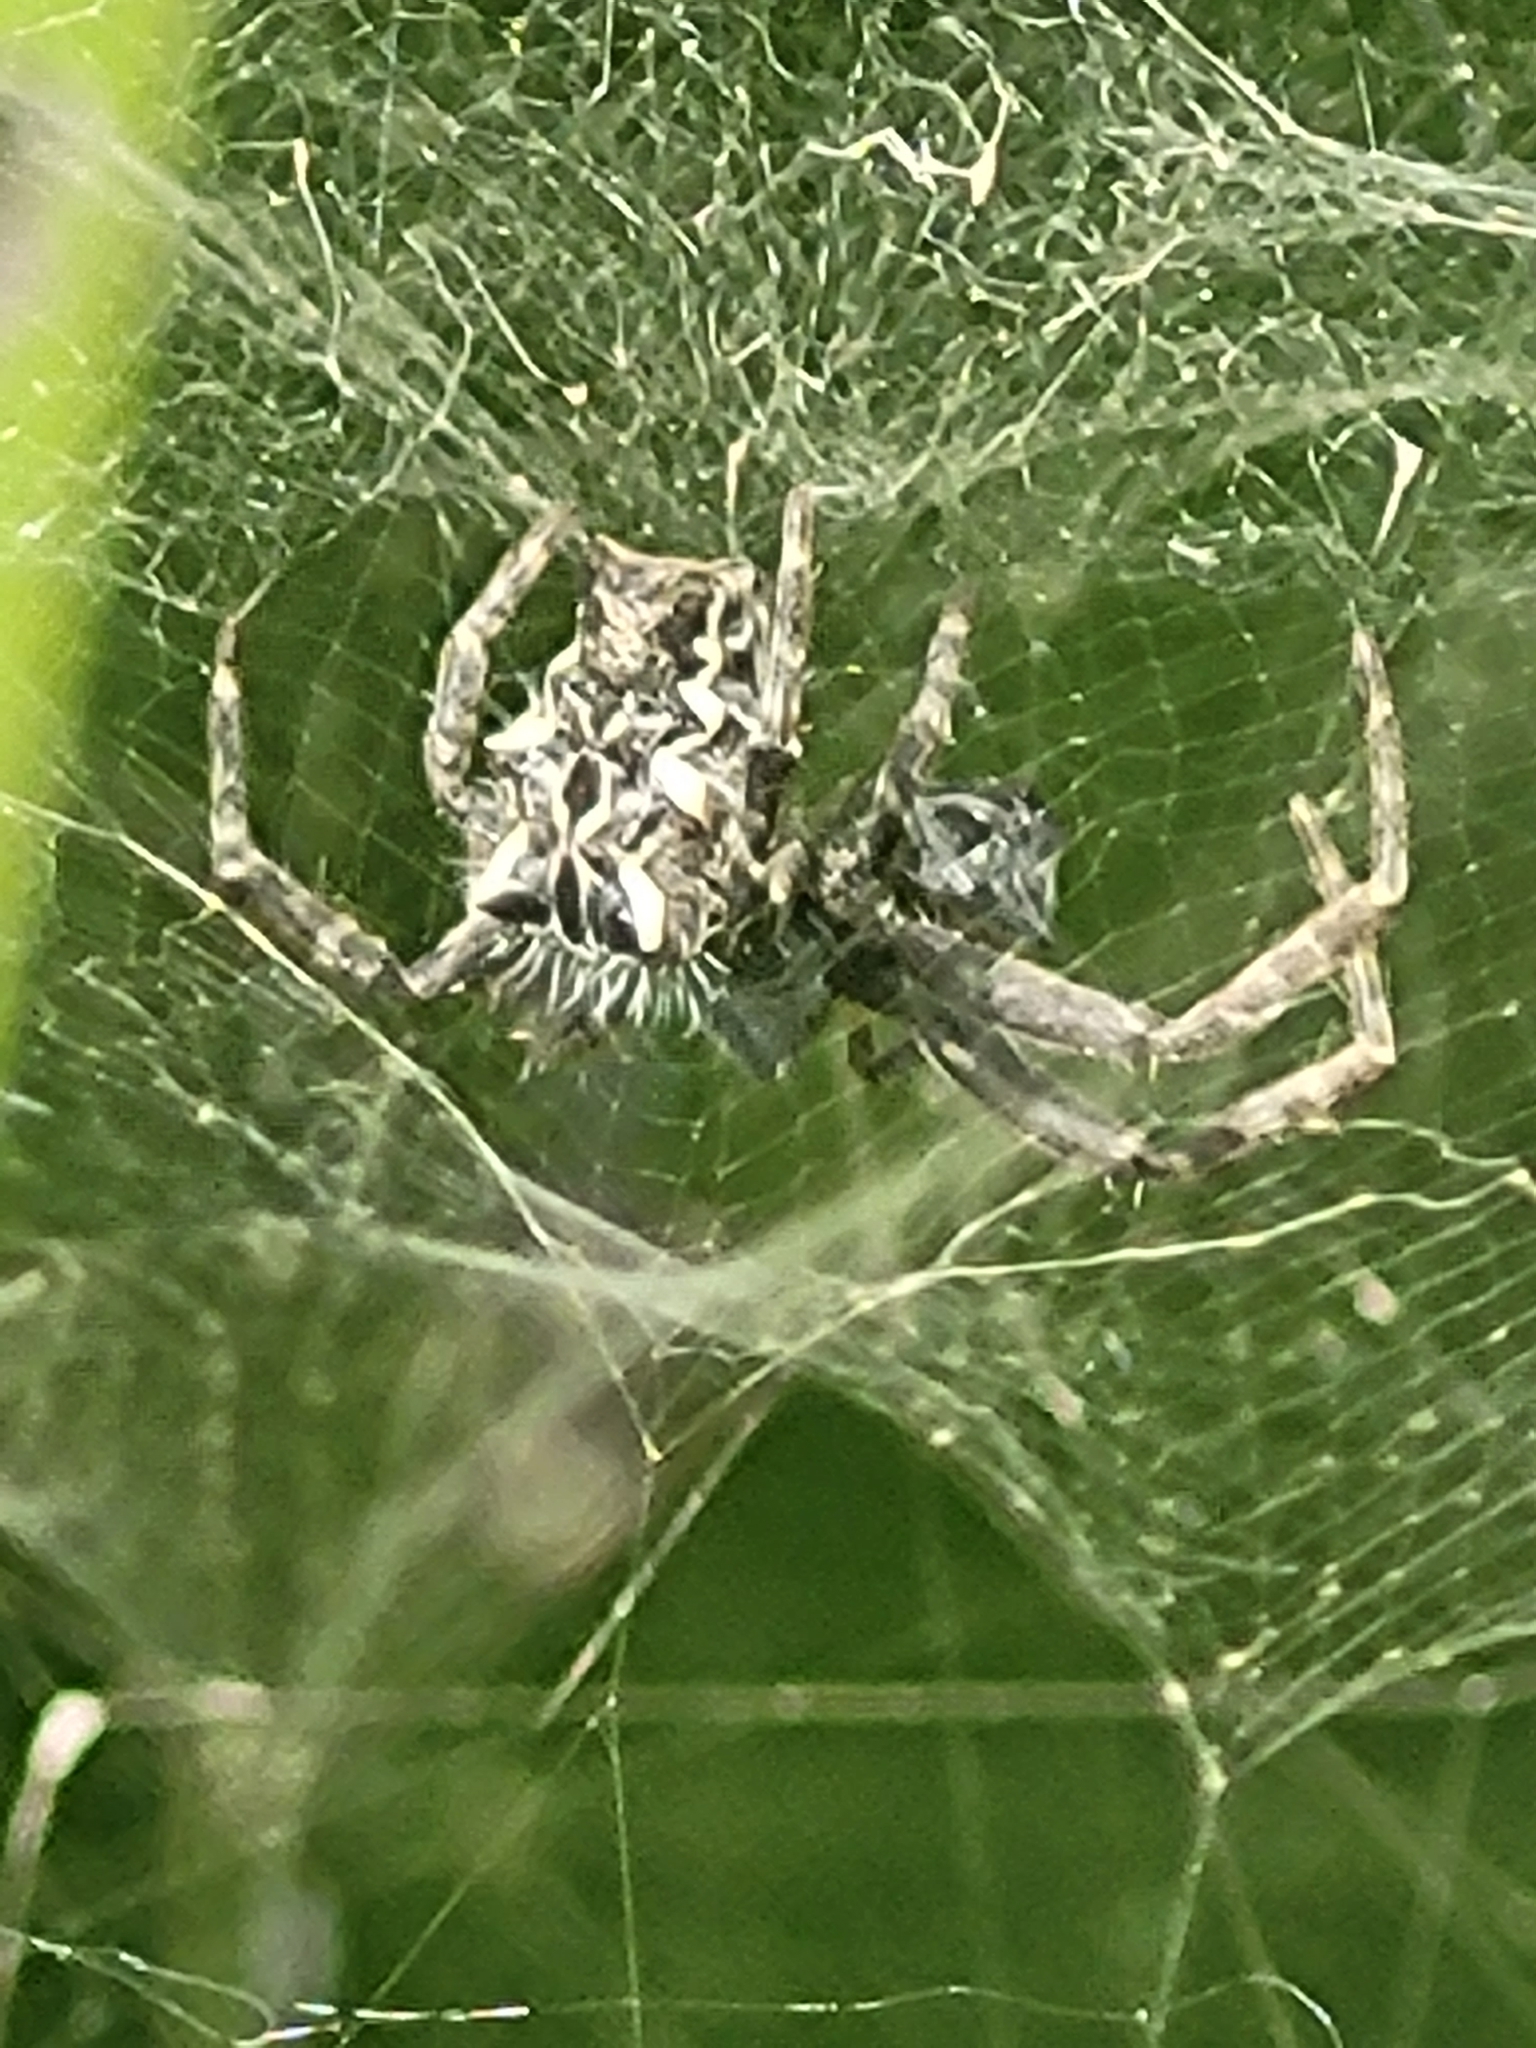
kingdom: Animalia
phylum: Arthropoda
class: Arachnida
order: Araneae
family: Araneidae
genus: Cyrtophora
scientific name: Cyrtophora citricola
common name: Orb weavers
